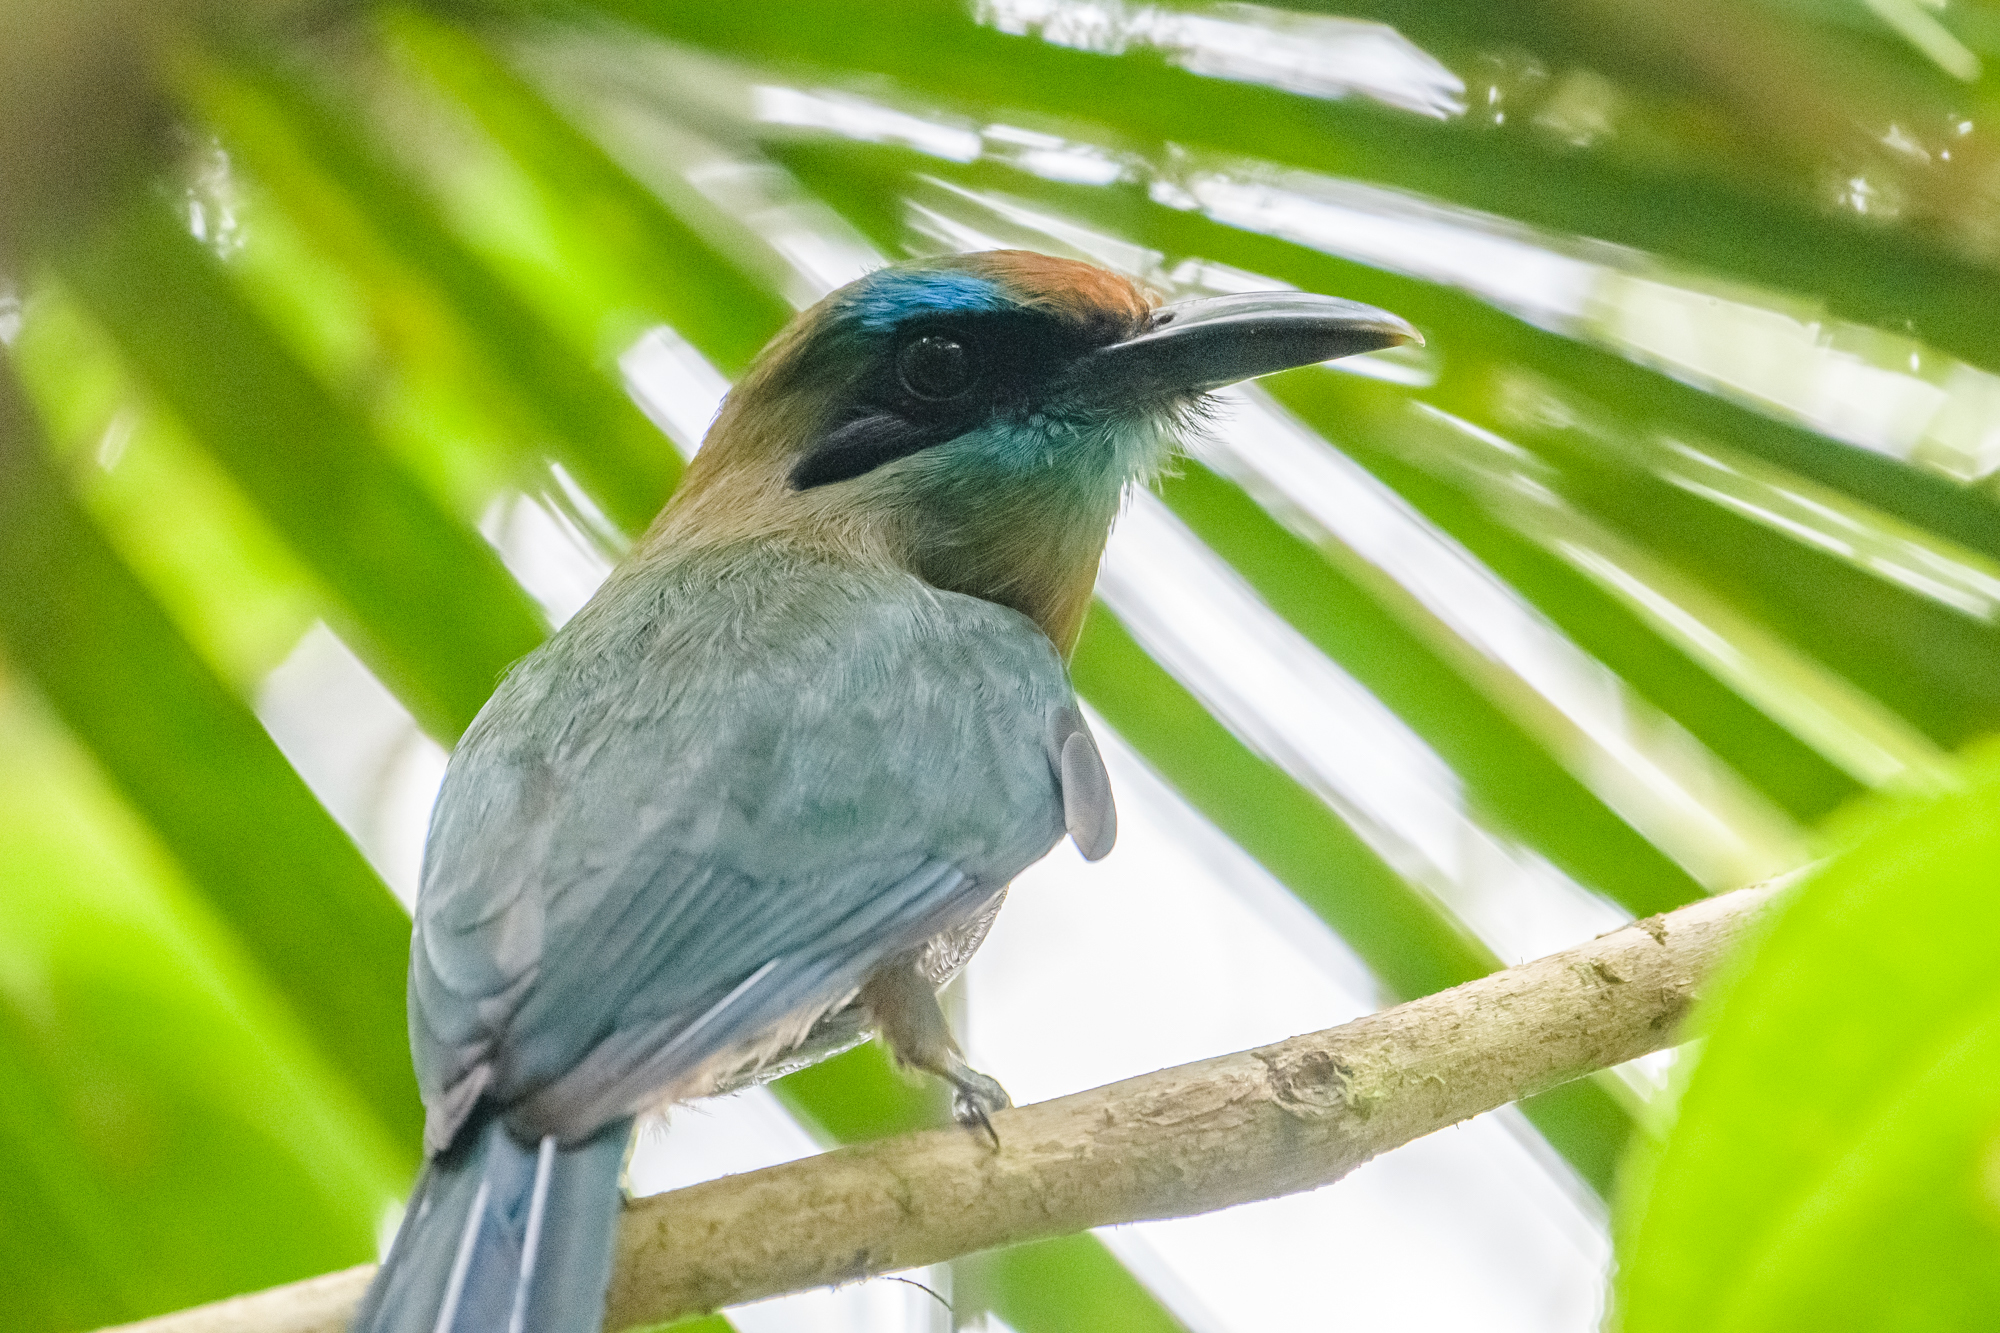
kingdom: Animalia
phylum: Chordata
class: Aves
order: Coraciiformes
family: Momotidae
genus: Electron
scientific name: Electron carinatum
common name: Keel-billed motmot
